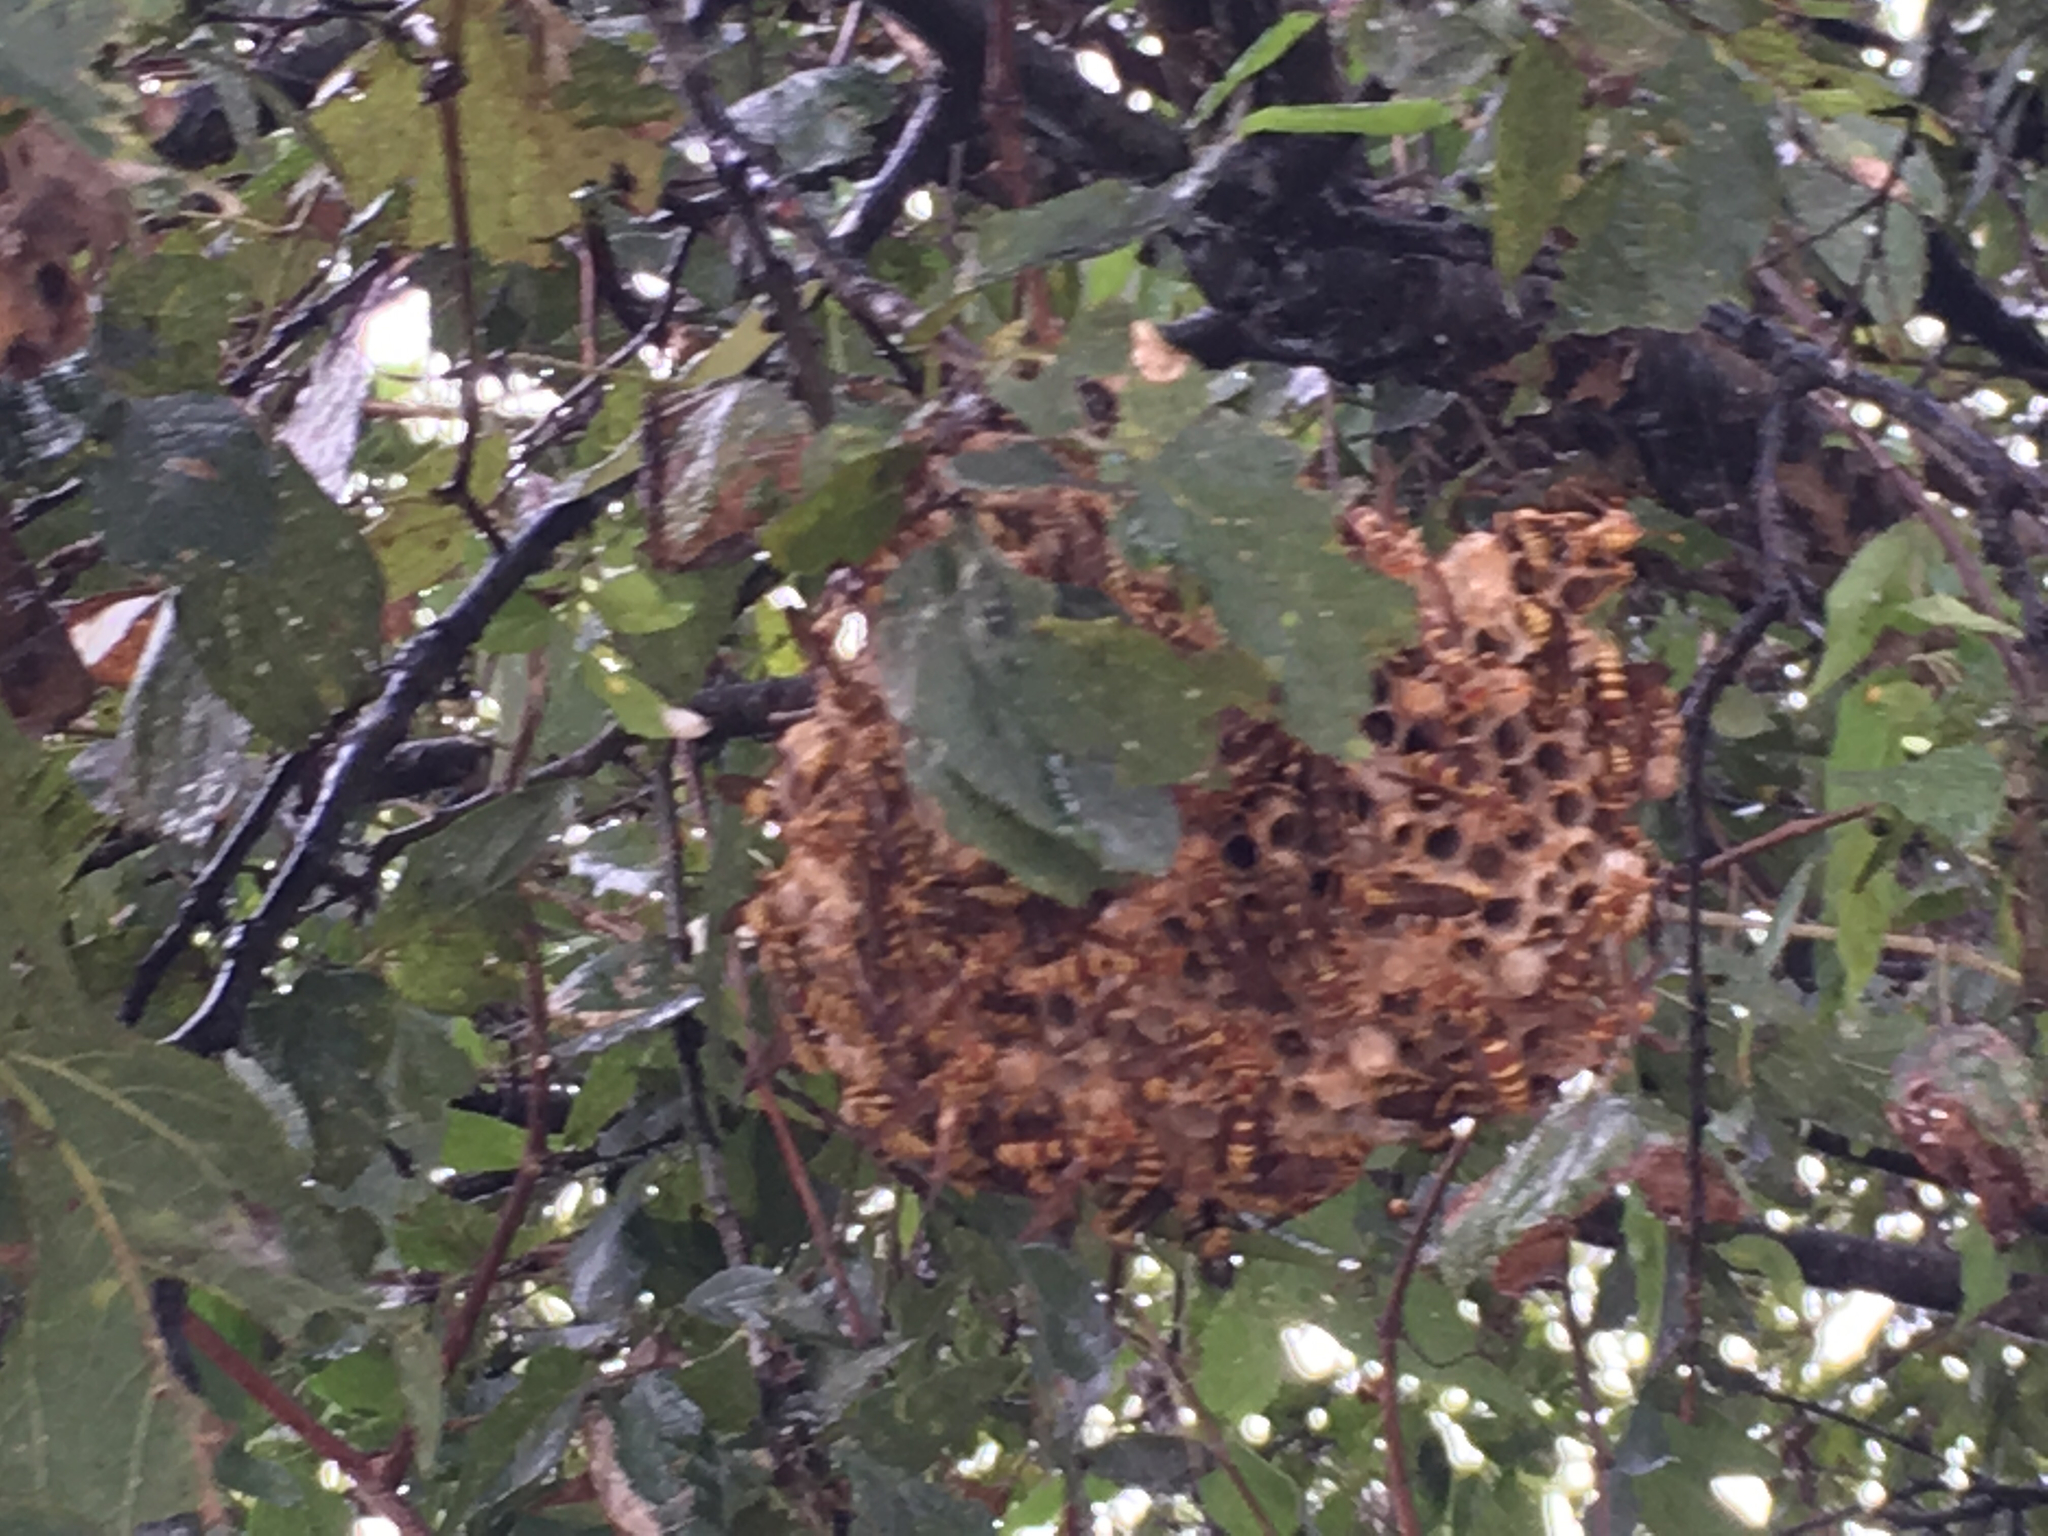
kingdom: Animalia
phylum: Arthropoda
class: Insecta
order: Hymenoptera
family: Eumenidae
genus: Polistes
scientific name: Polistes exclamans
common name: Paper wasp
